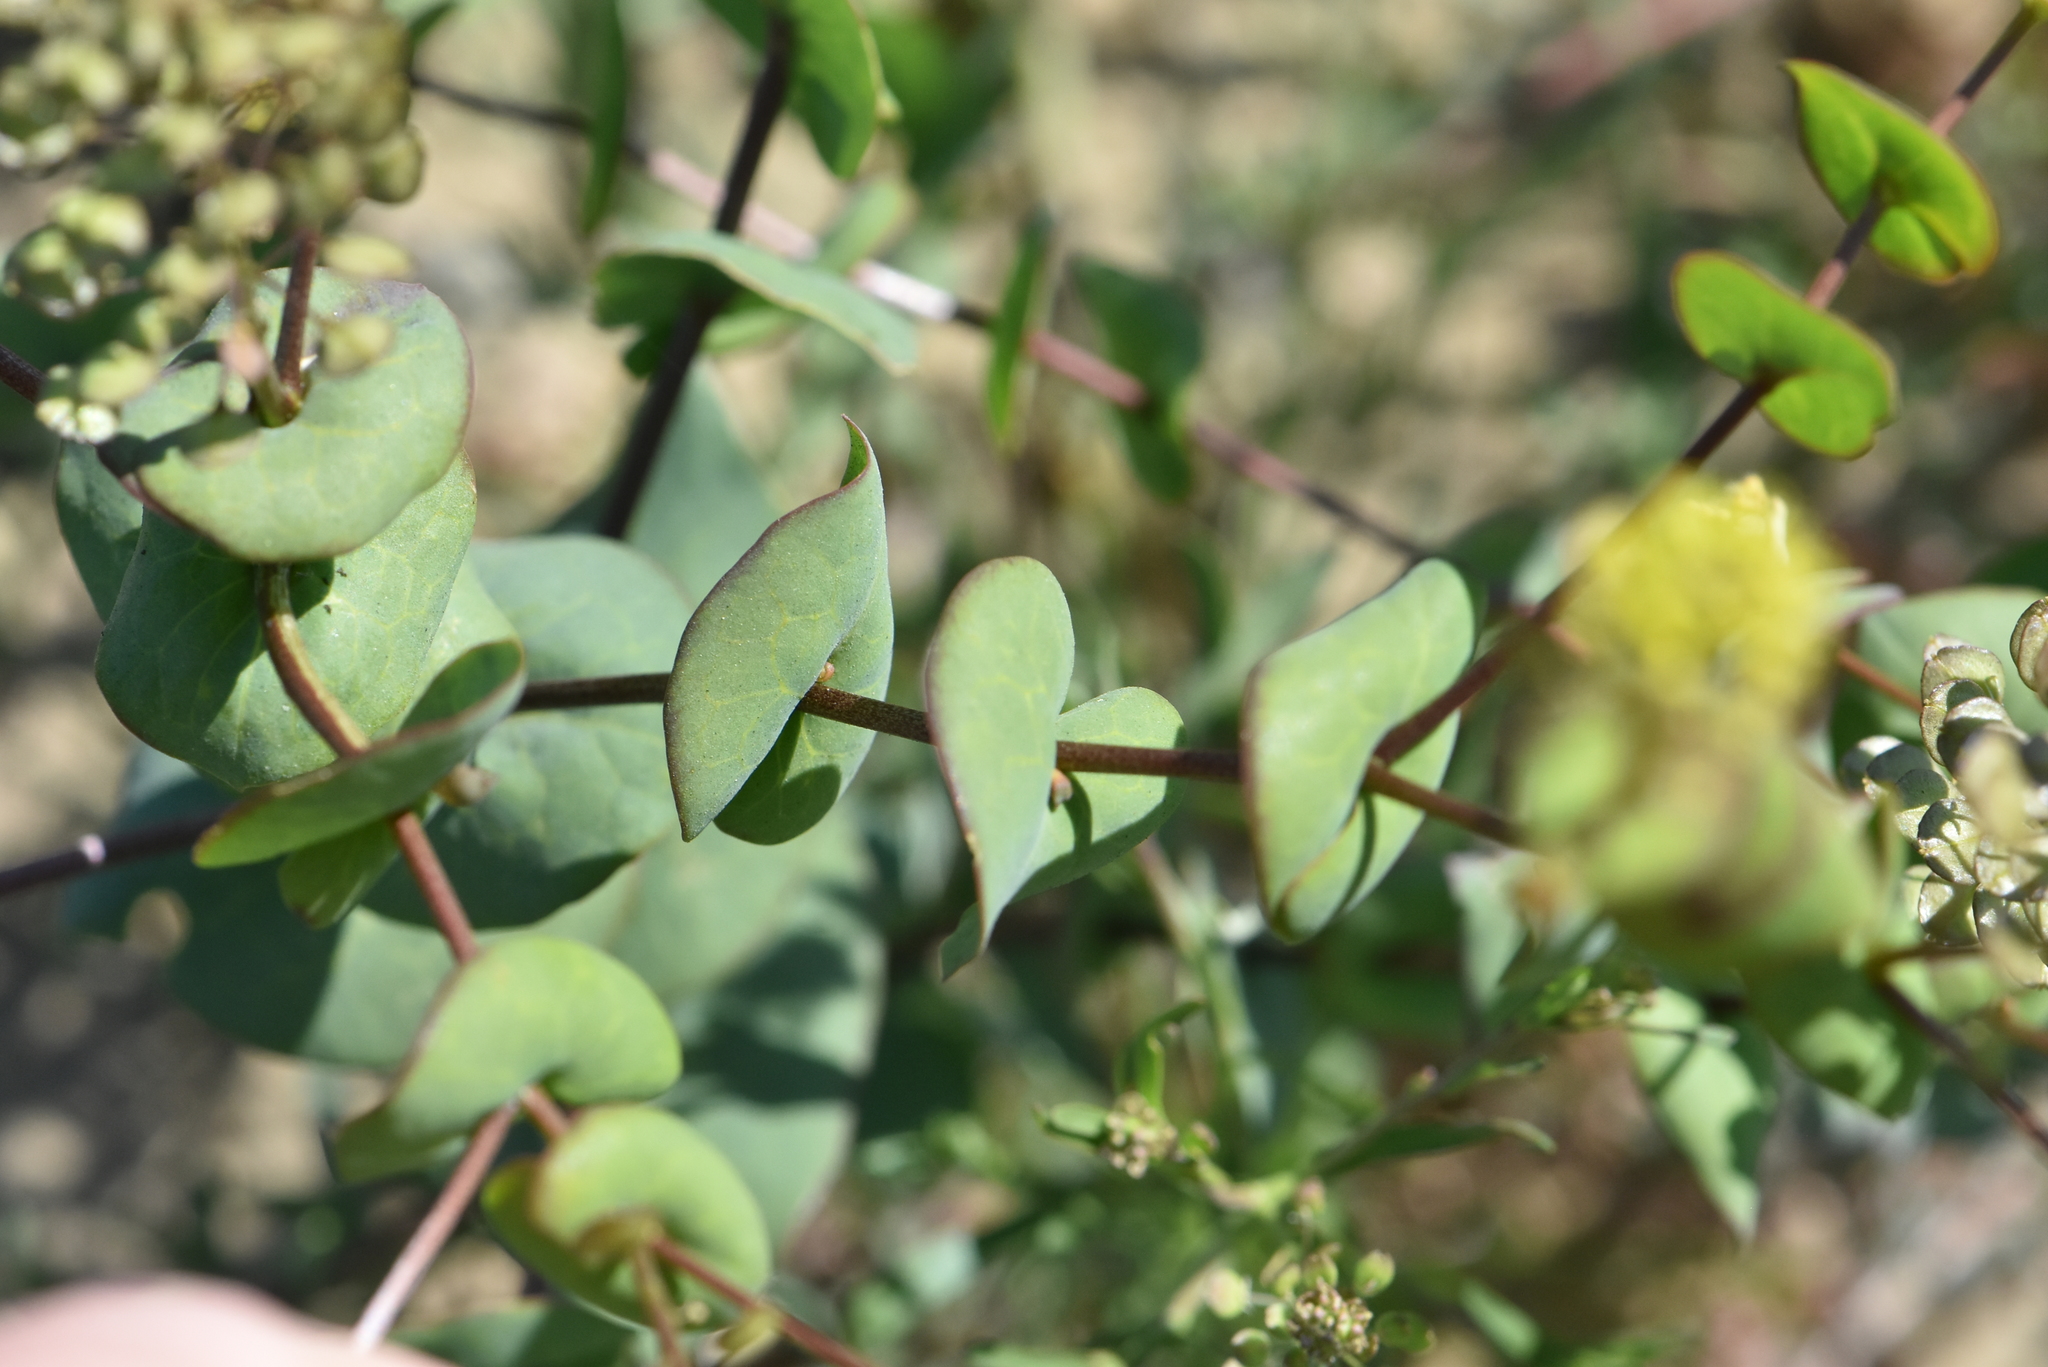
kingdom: Plantae
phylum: Tracheophyta
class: Magnoliopsida
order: Brassicales
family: Brassicaceae
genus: Lepidium
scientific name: Lepidium perfoliatum
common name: Perfoliate pepperwort
